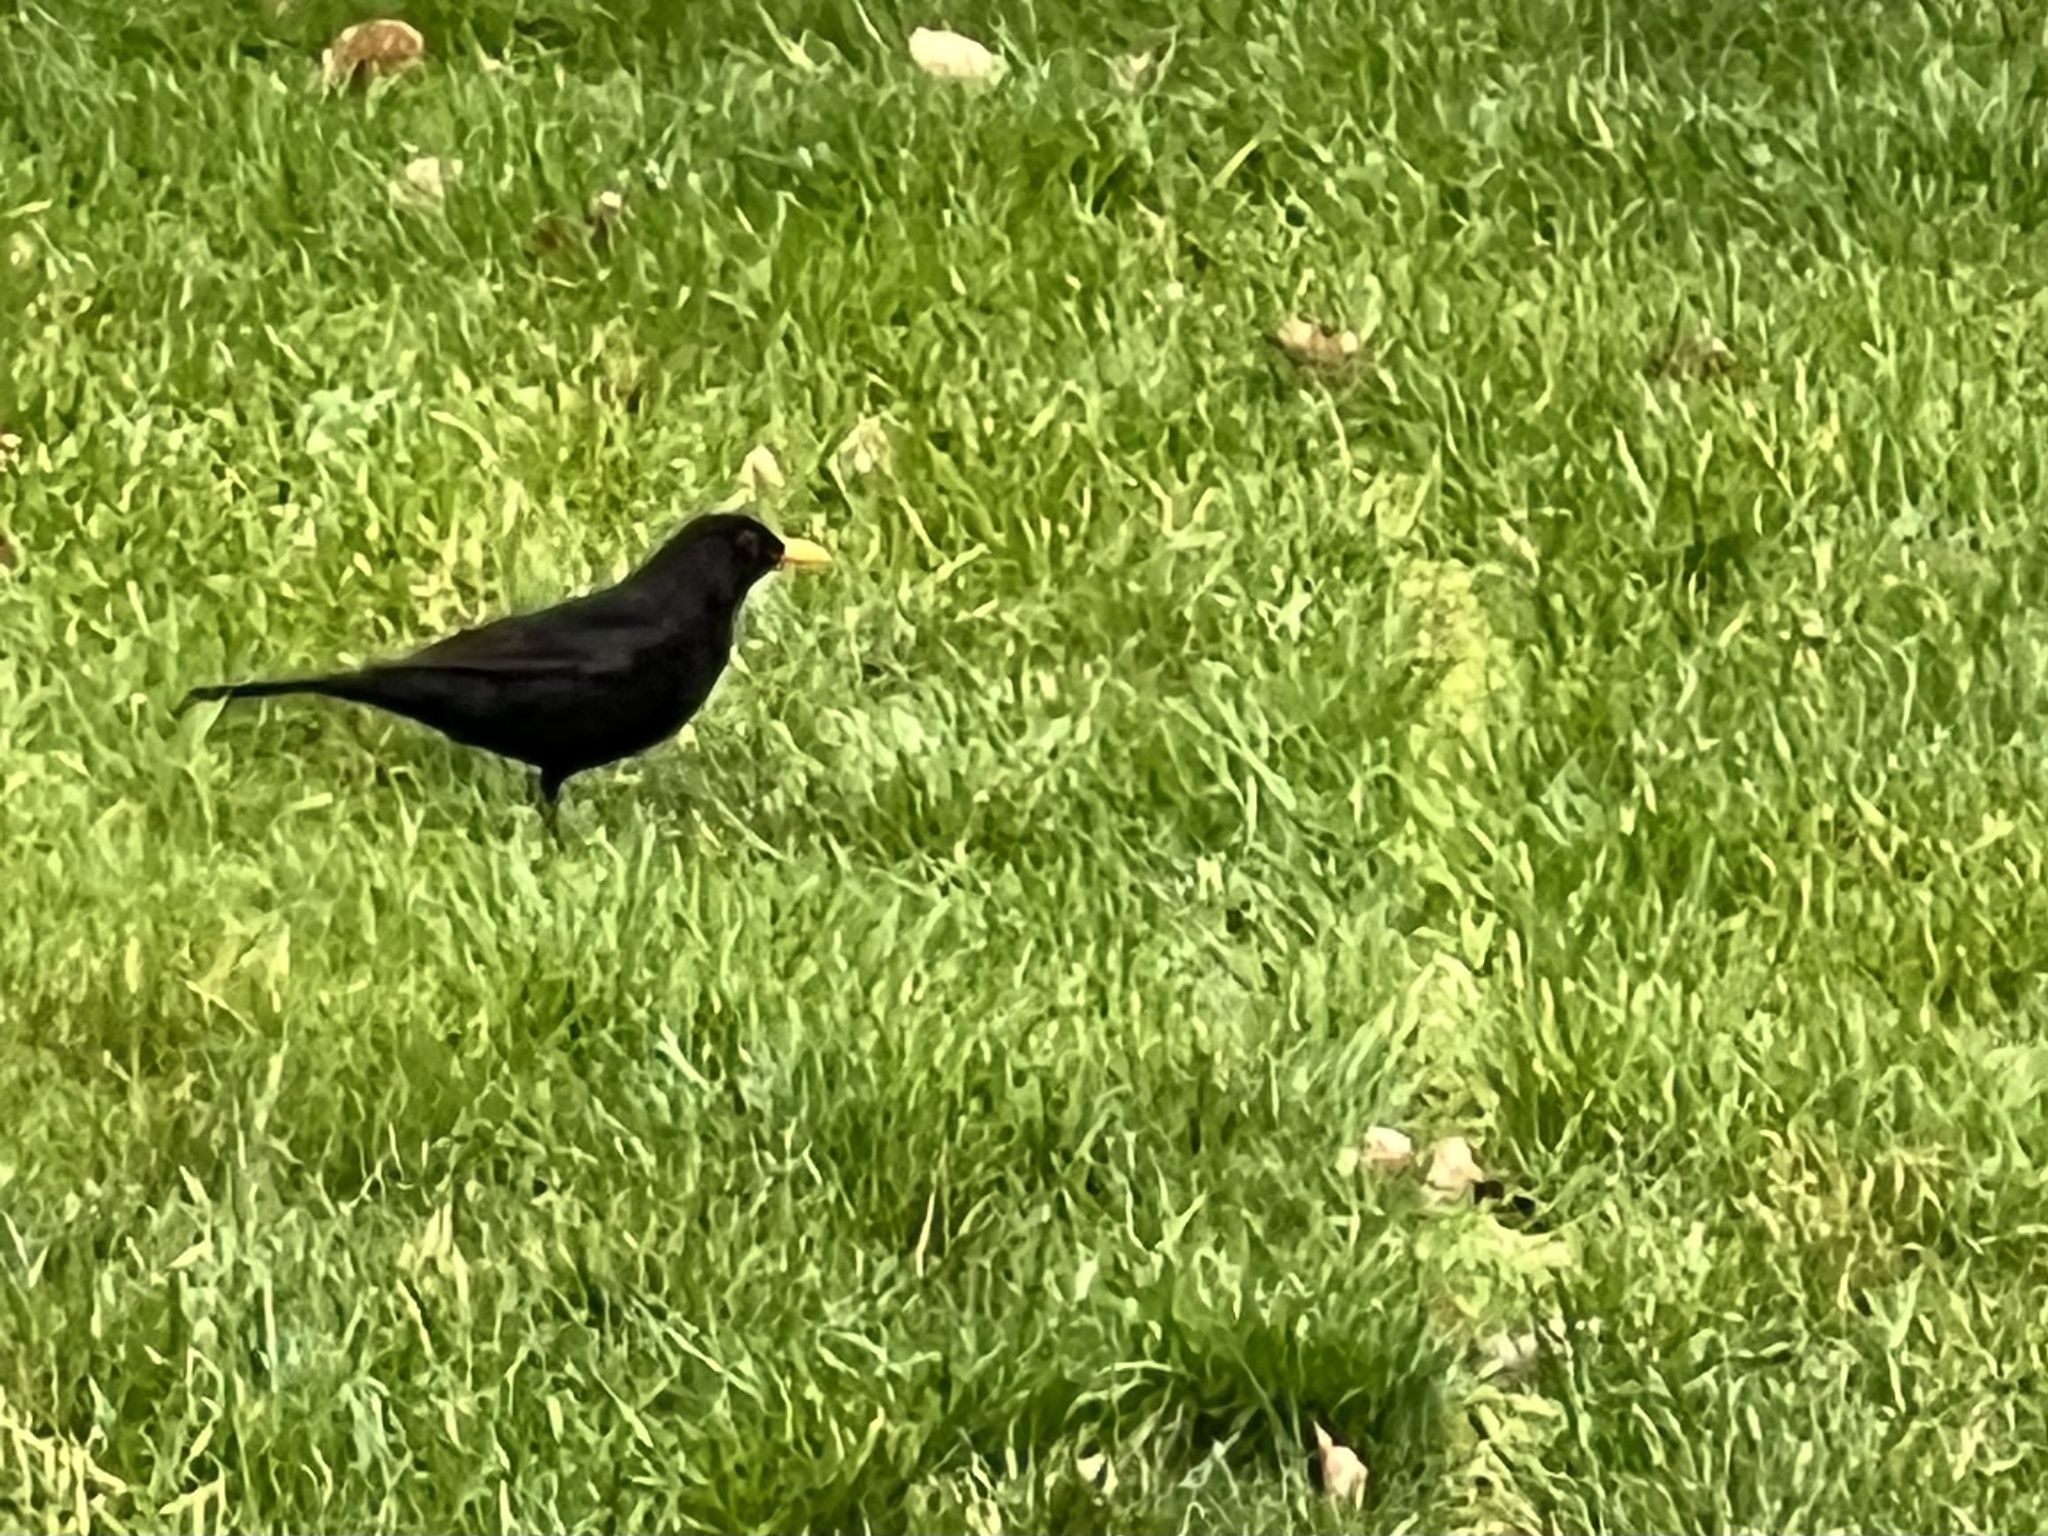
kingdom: Animalia
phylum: Chordata
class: Aves
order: Passeriformes
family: Turdidae
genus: Turdus
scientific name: Turdus merula
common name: Common blackbird
